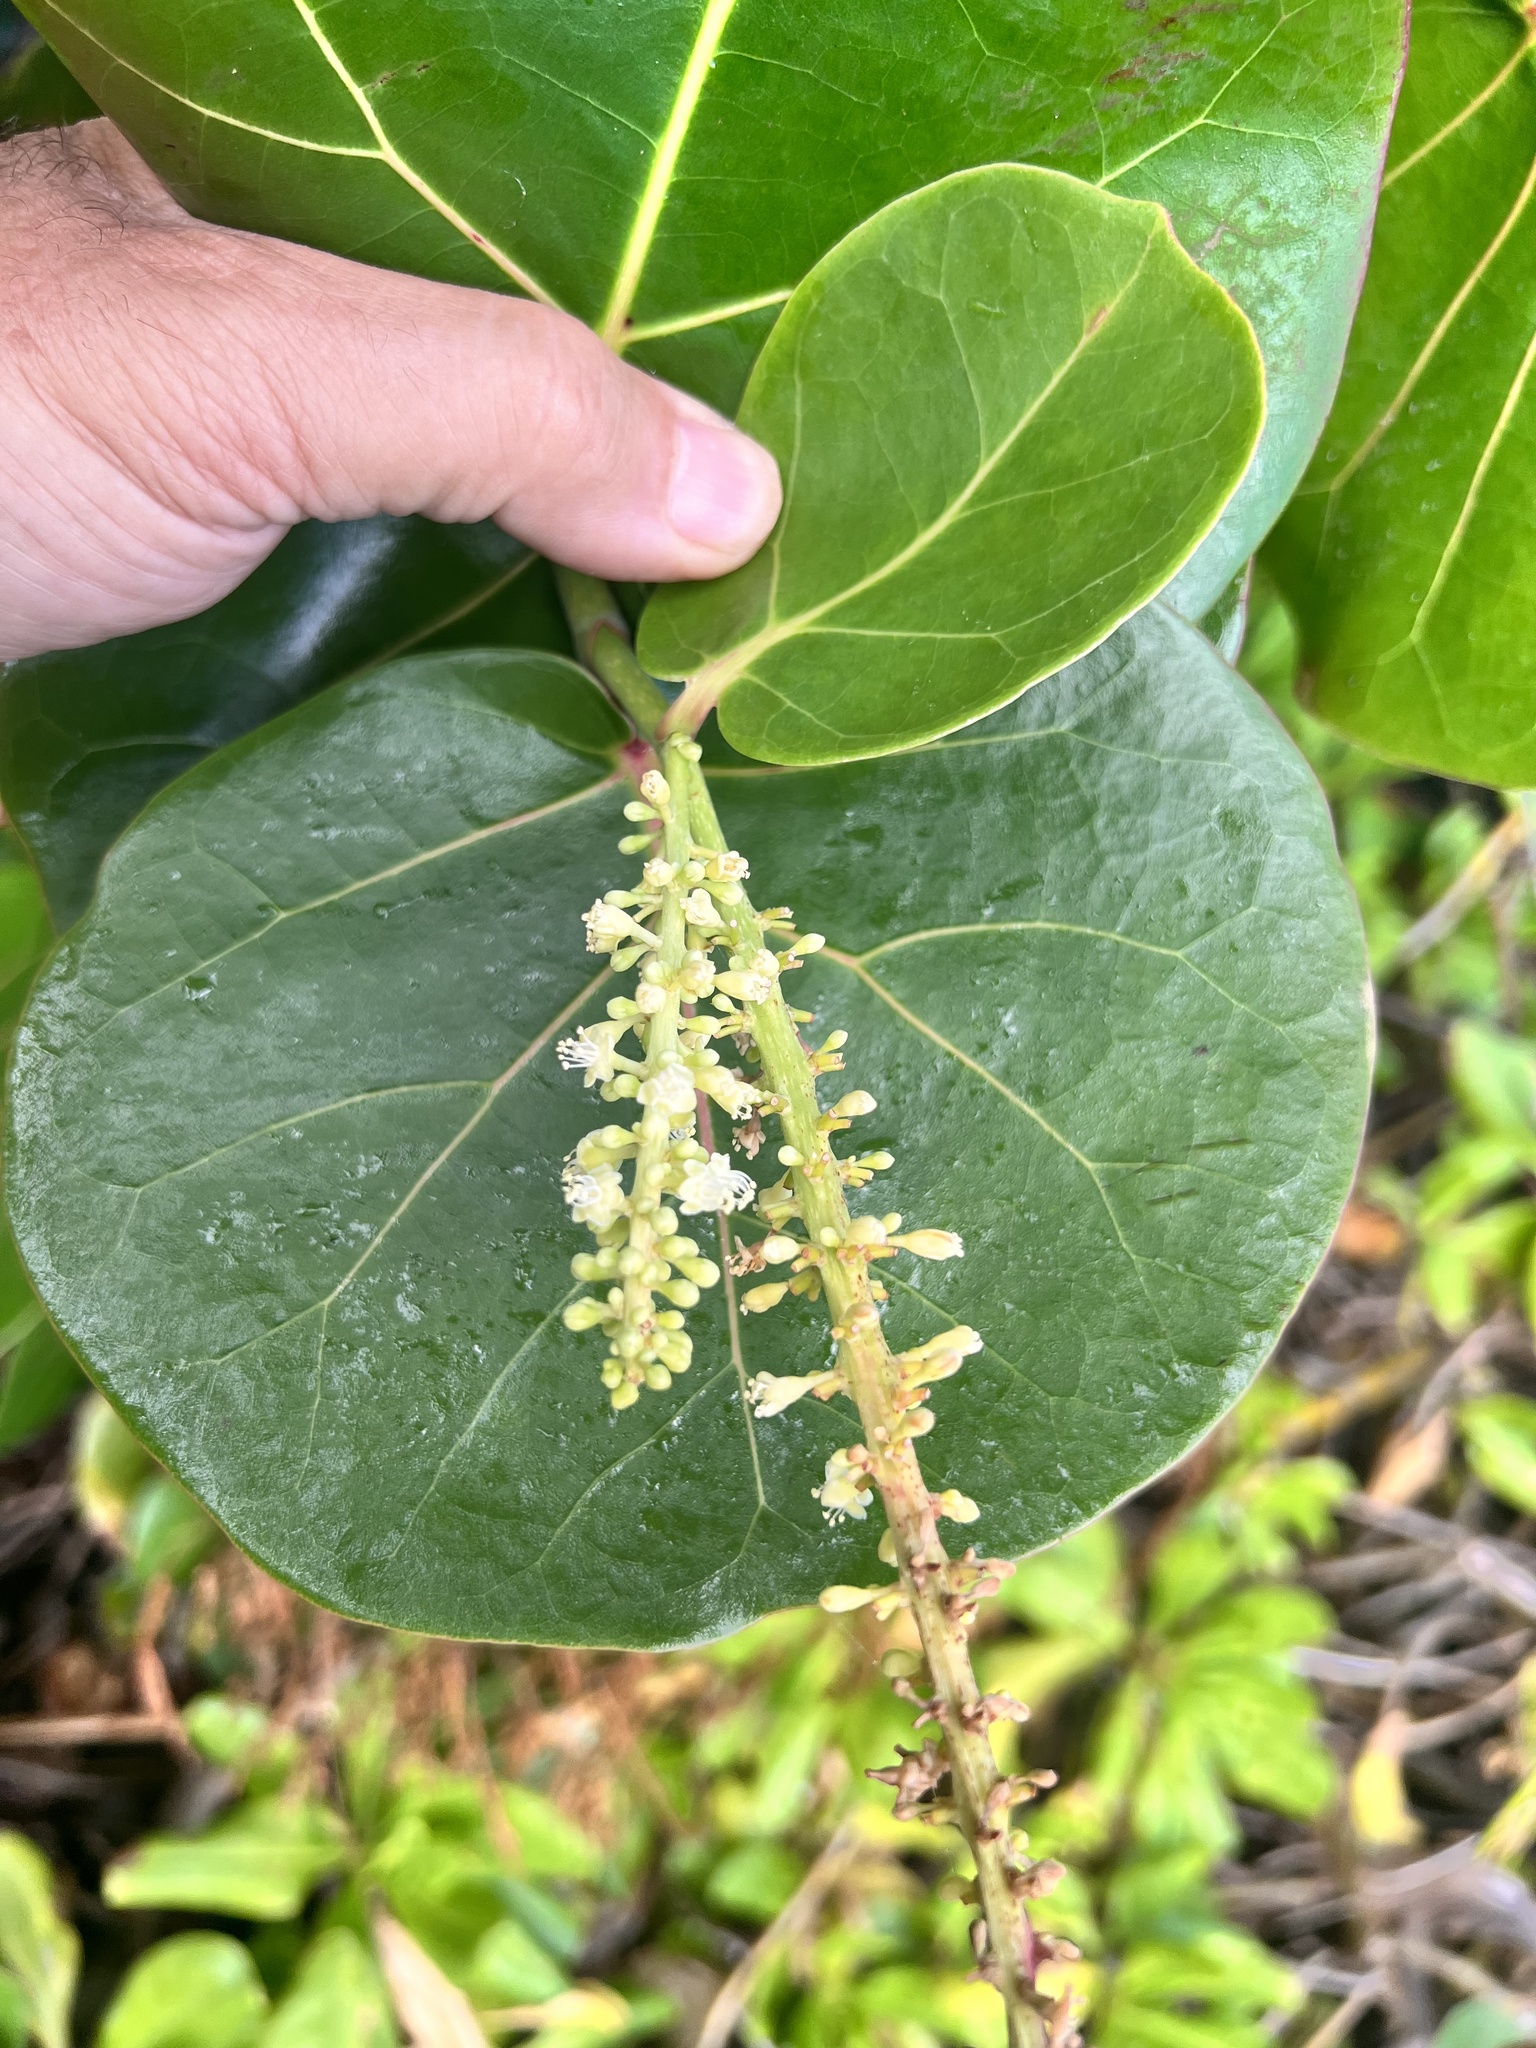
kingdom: Plantae
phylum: Tracheophyta
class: Magnoliopsida
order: Caryophyllales
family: Polygonaceae
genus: Coccoloba
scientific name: Coccoloba uvifera
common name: Seagrape
